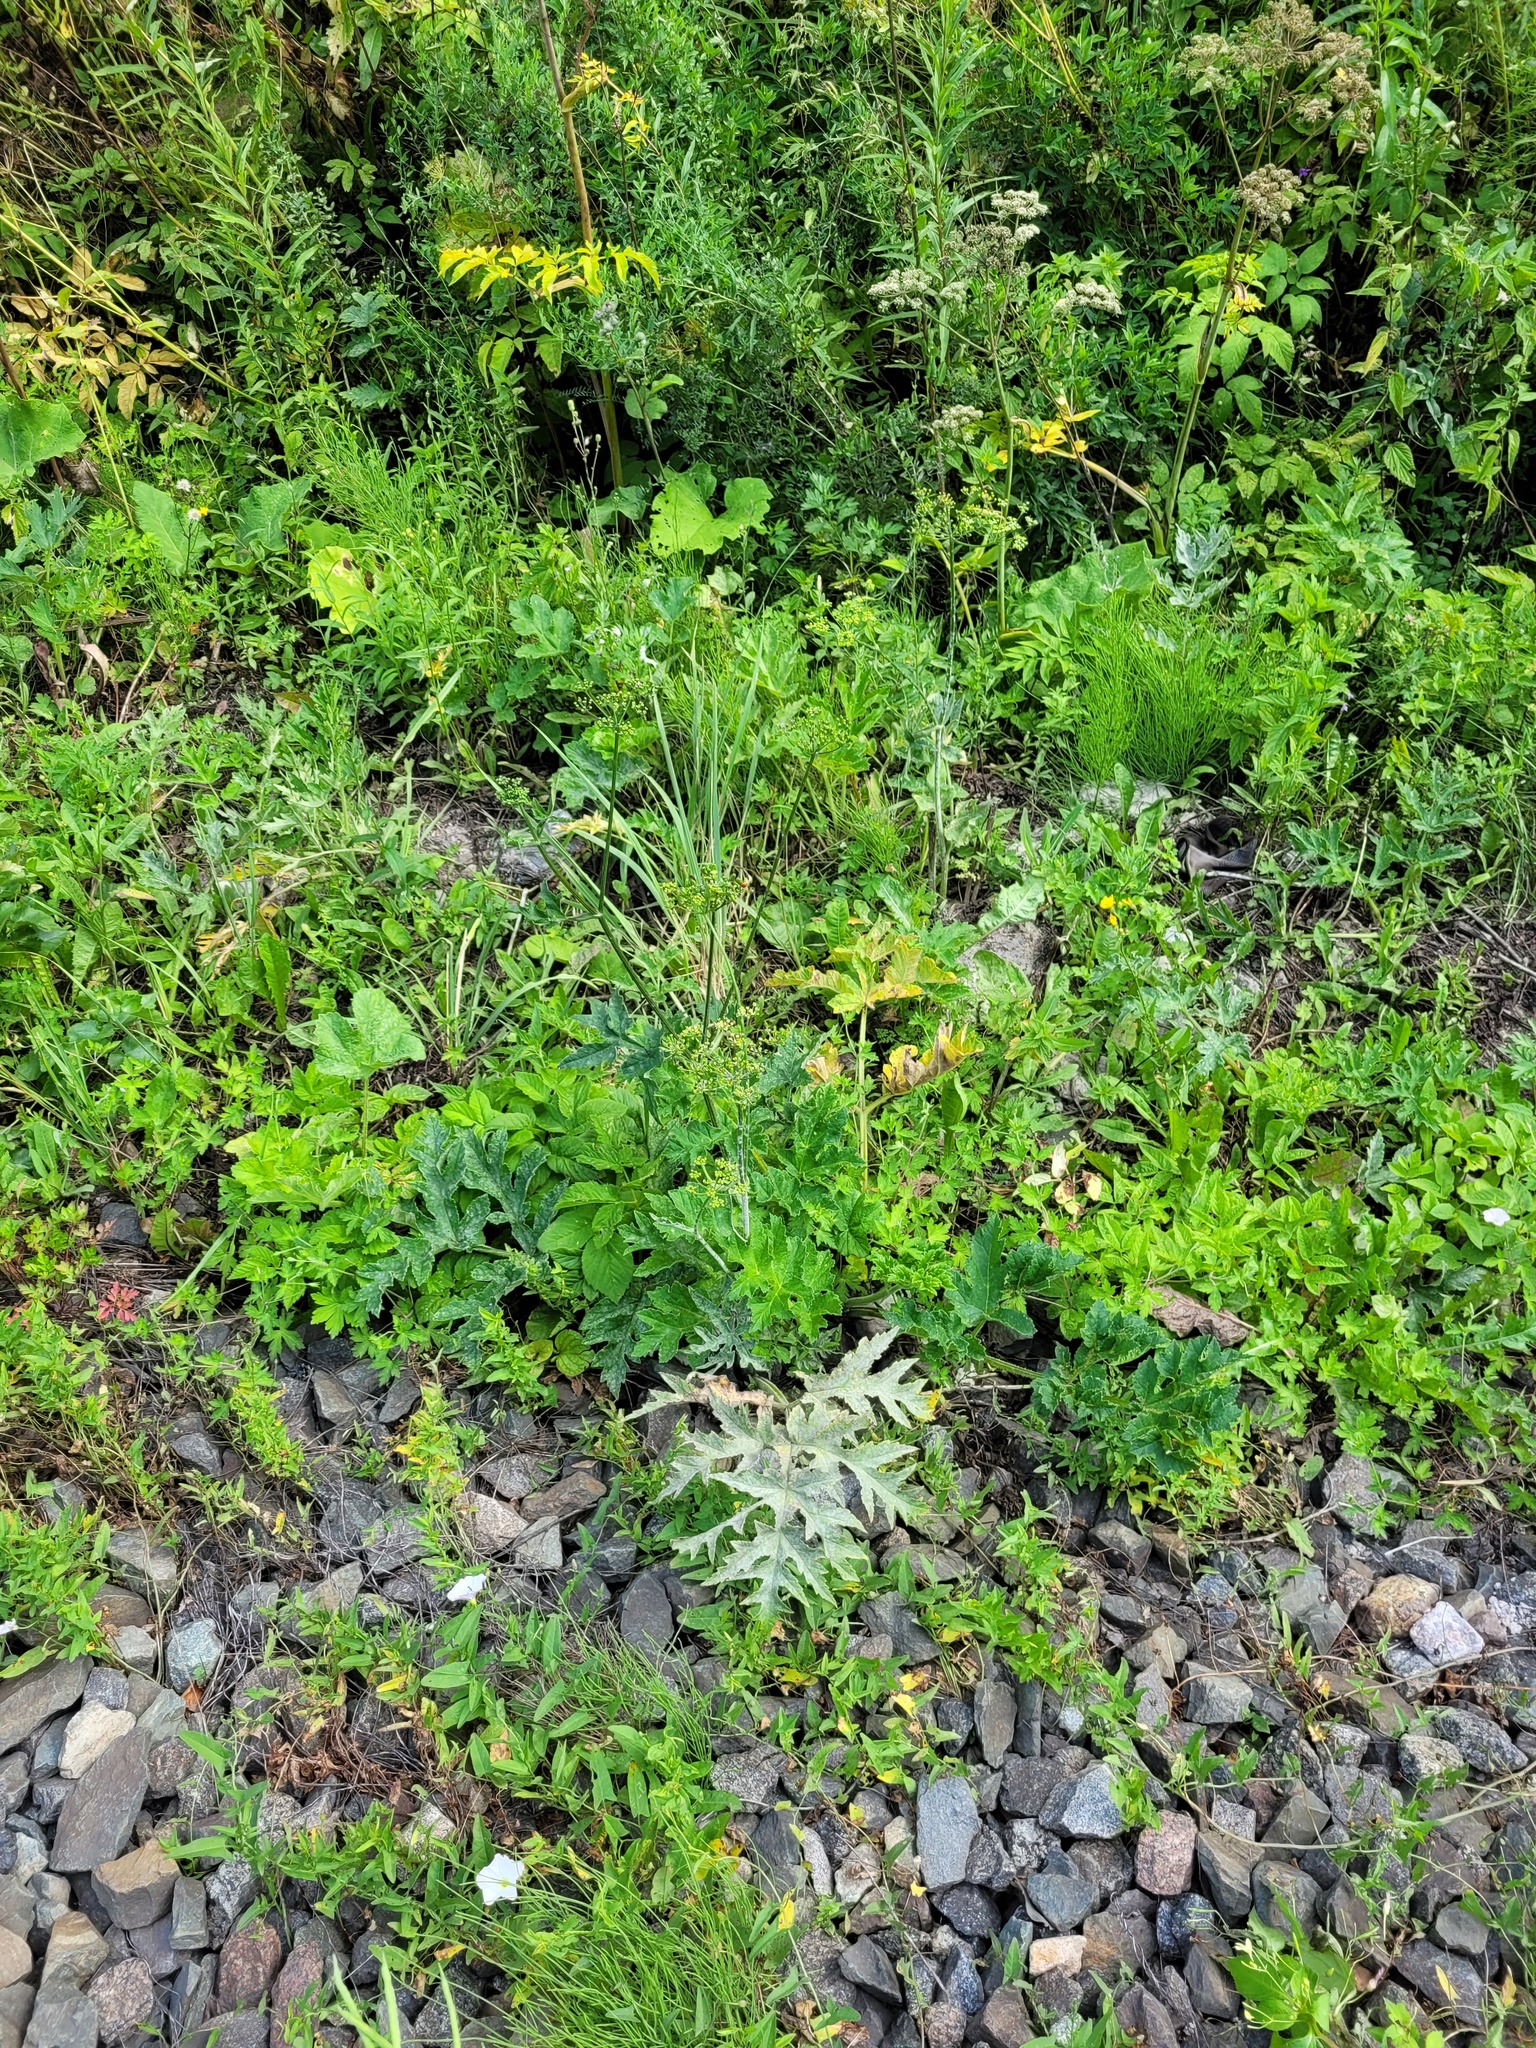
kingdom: Plantae
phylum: Tracheophyta
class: Magnoliopsida
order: Apiales
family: Apiaceae
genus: Heracleum
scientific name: Heracleum sphondylium
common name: Hogweed
